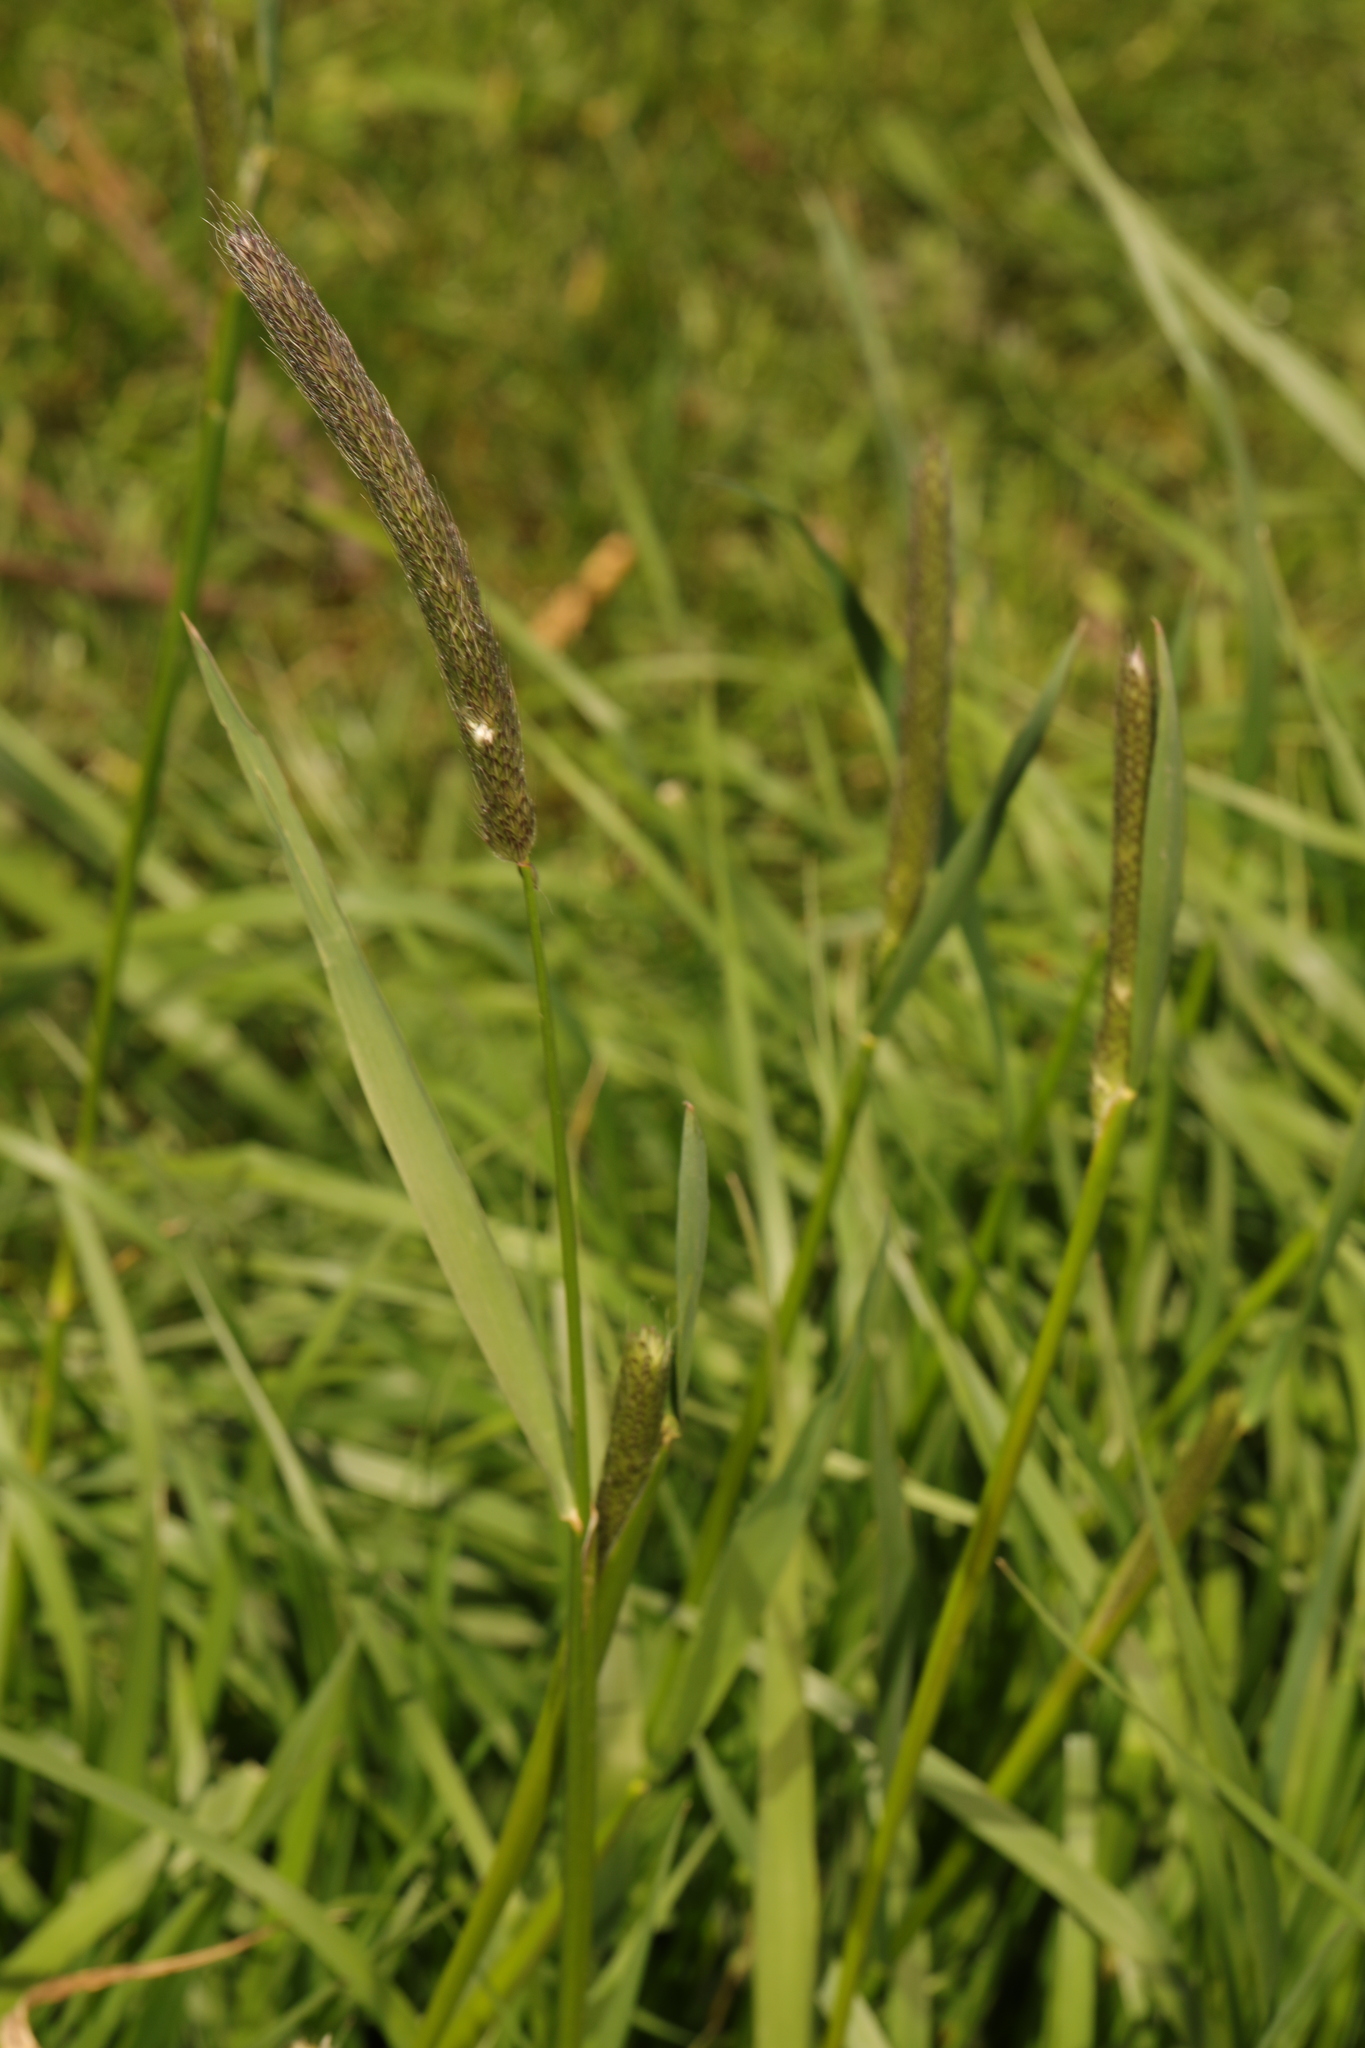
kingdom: Plantae
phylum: Tracheophyta
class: Liliopsida
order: Poales
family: Poaceae
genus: Alopecurus
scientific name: Alopecurus pratensis
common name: Meadow foxtail
